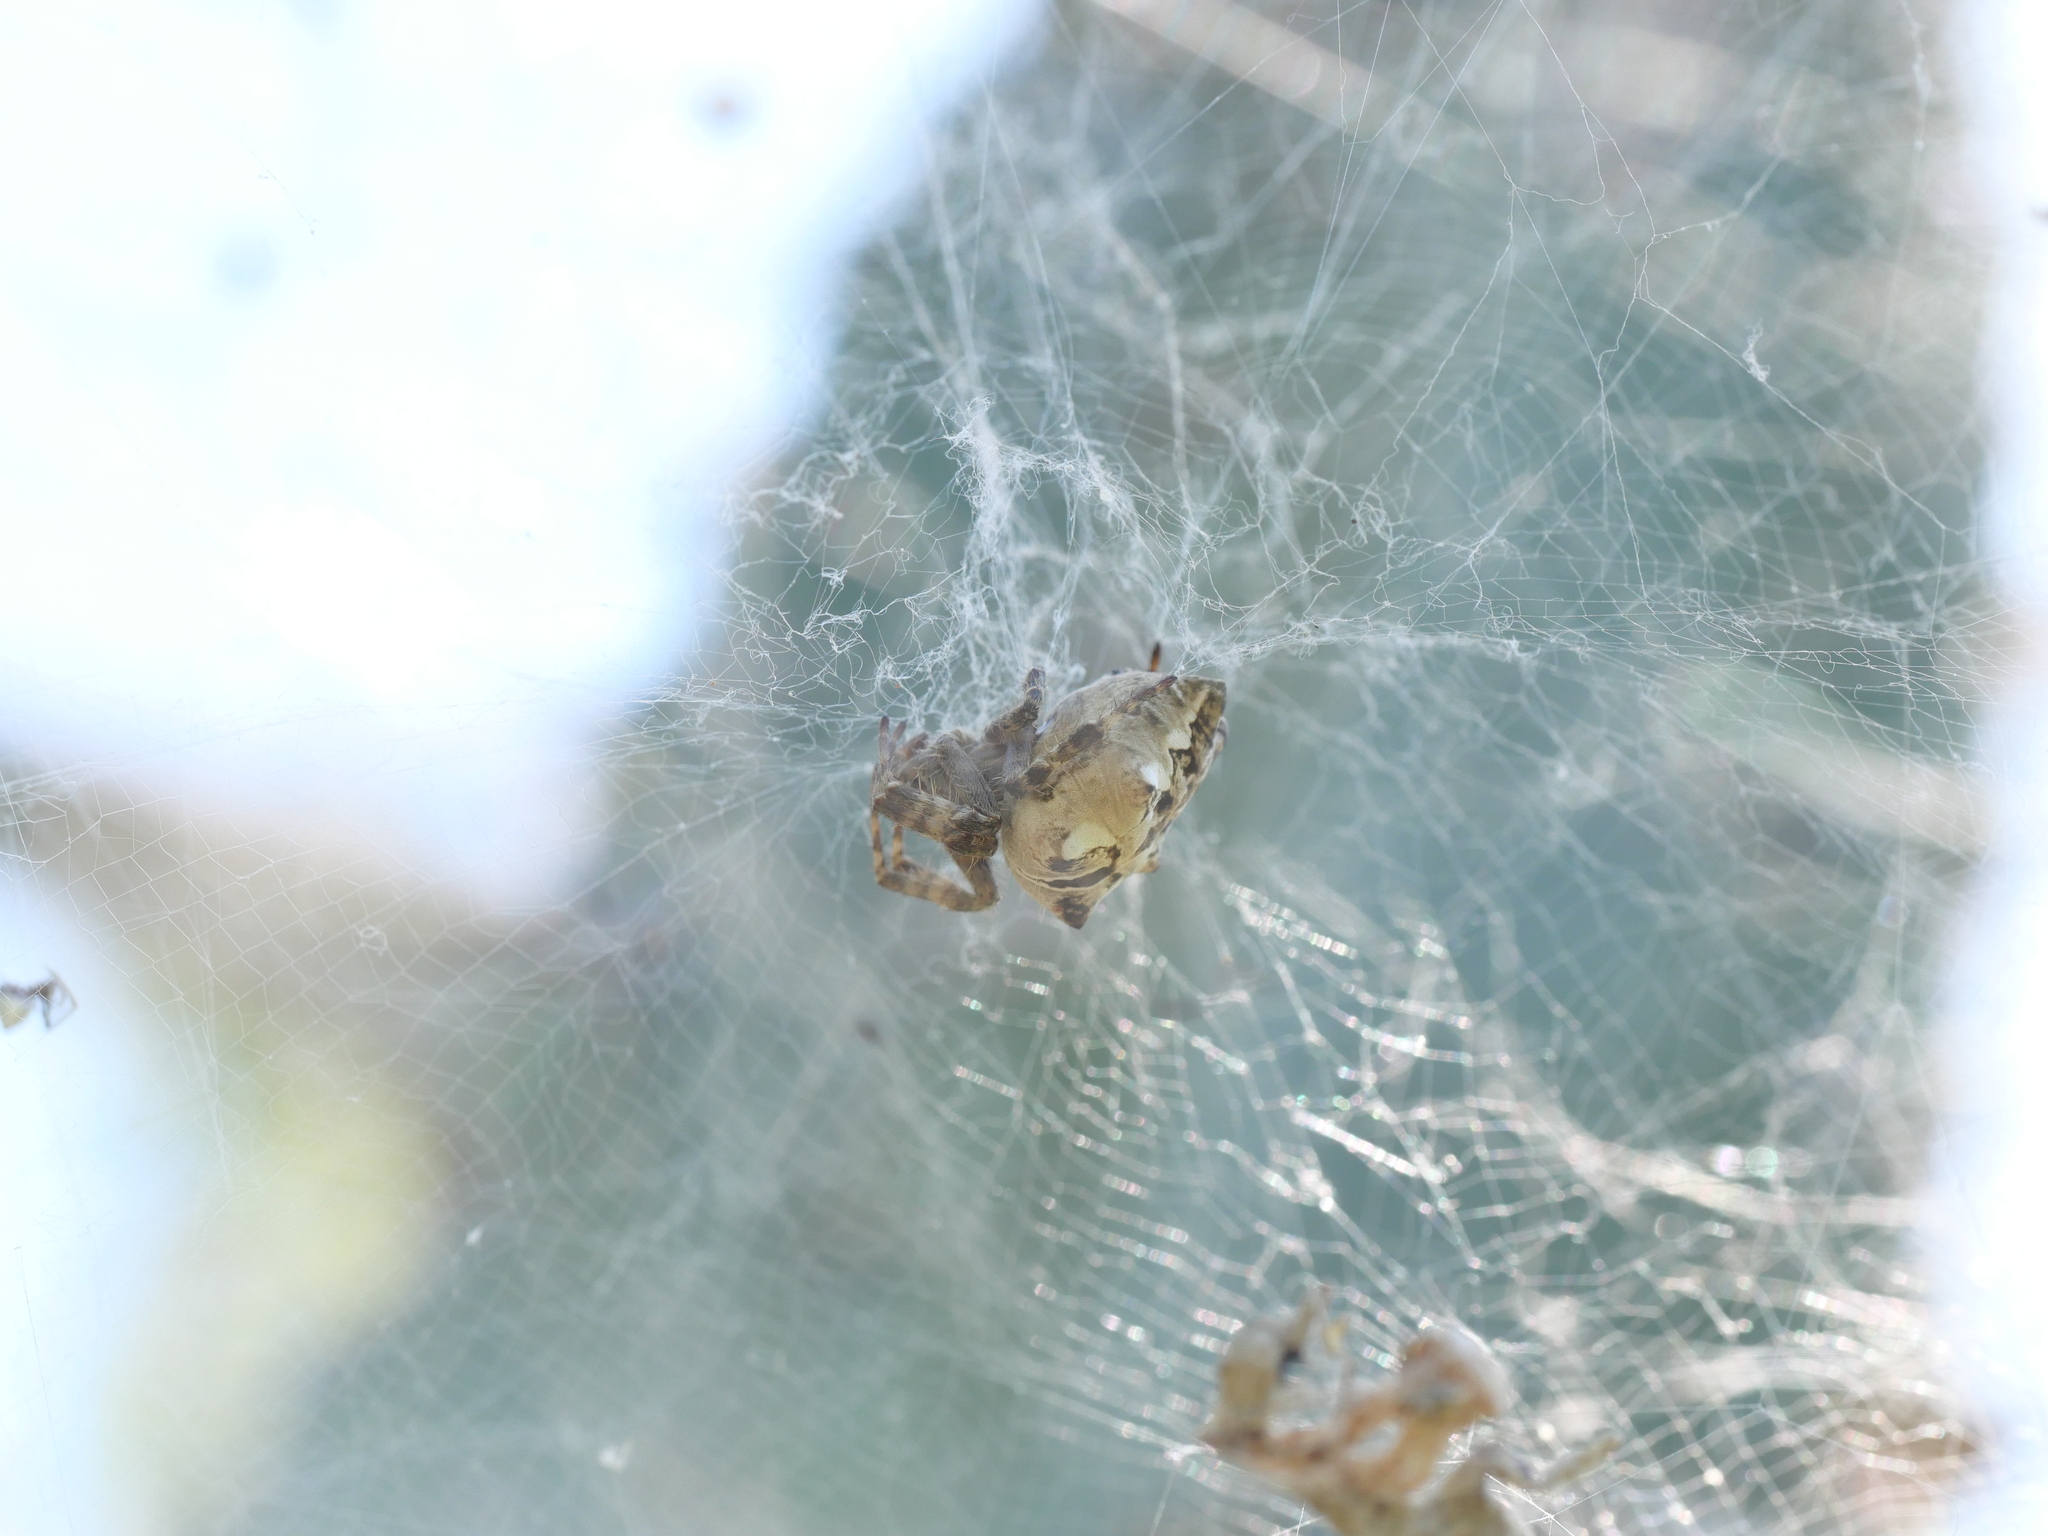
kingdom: Animalia
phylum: Arthropoda
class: Arachnida
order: Araneae
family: Araneidae
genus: Cyrtophora
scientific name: Cyrtophora citricola
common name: Orb weavers
